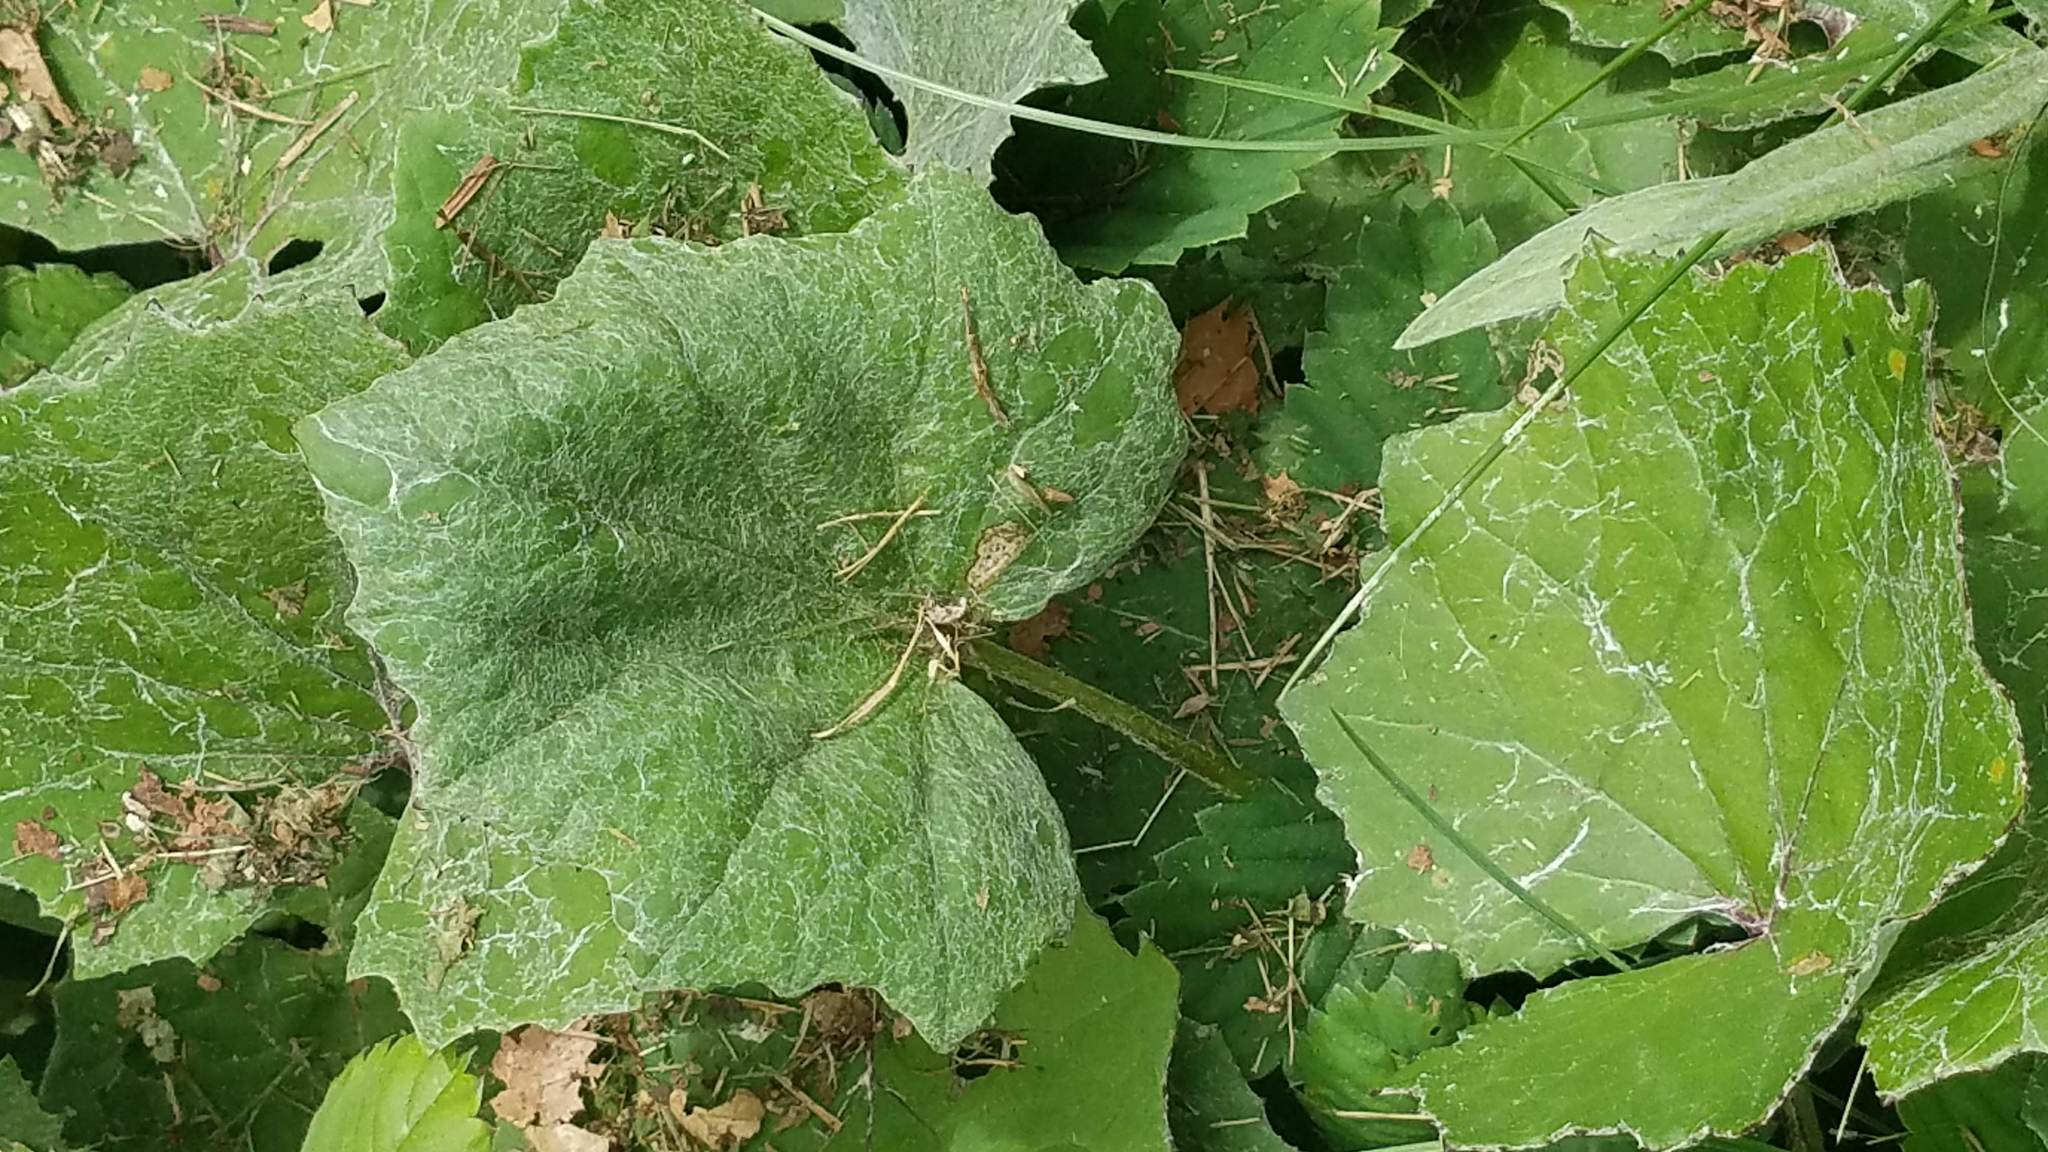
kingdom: Plantae
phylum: Tracheophyta
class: Magnoliopsida
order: Asterales
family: Asteraceae
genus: Tussilago
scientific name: Tussilago farfara
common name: Coltsfoot
